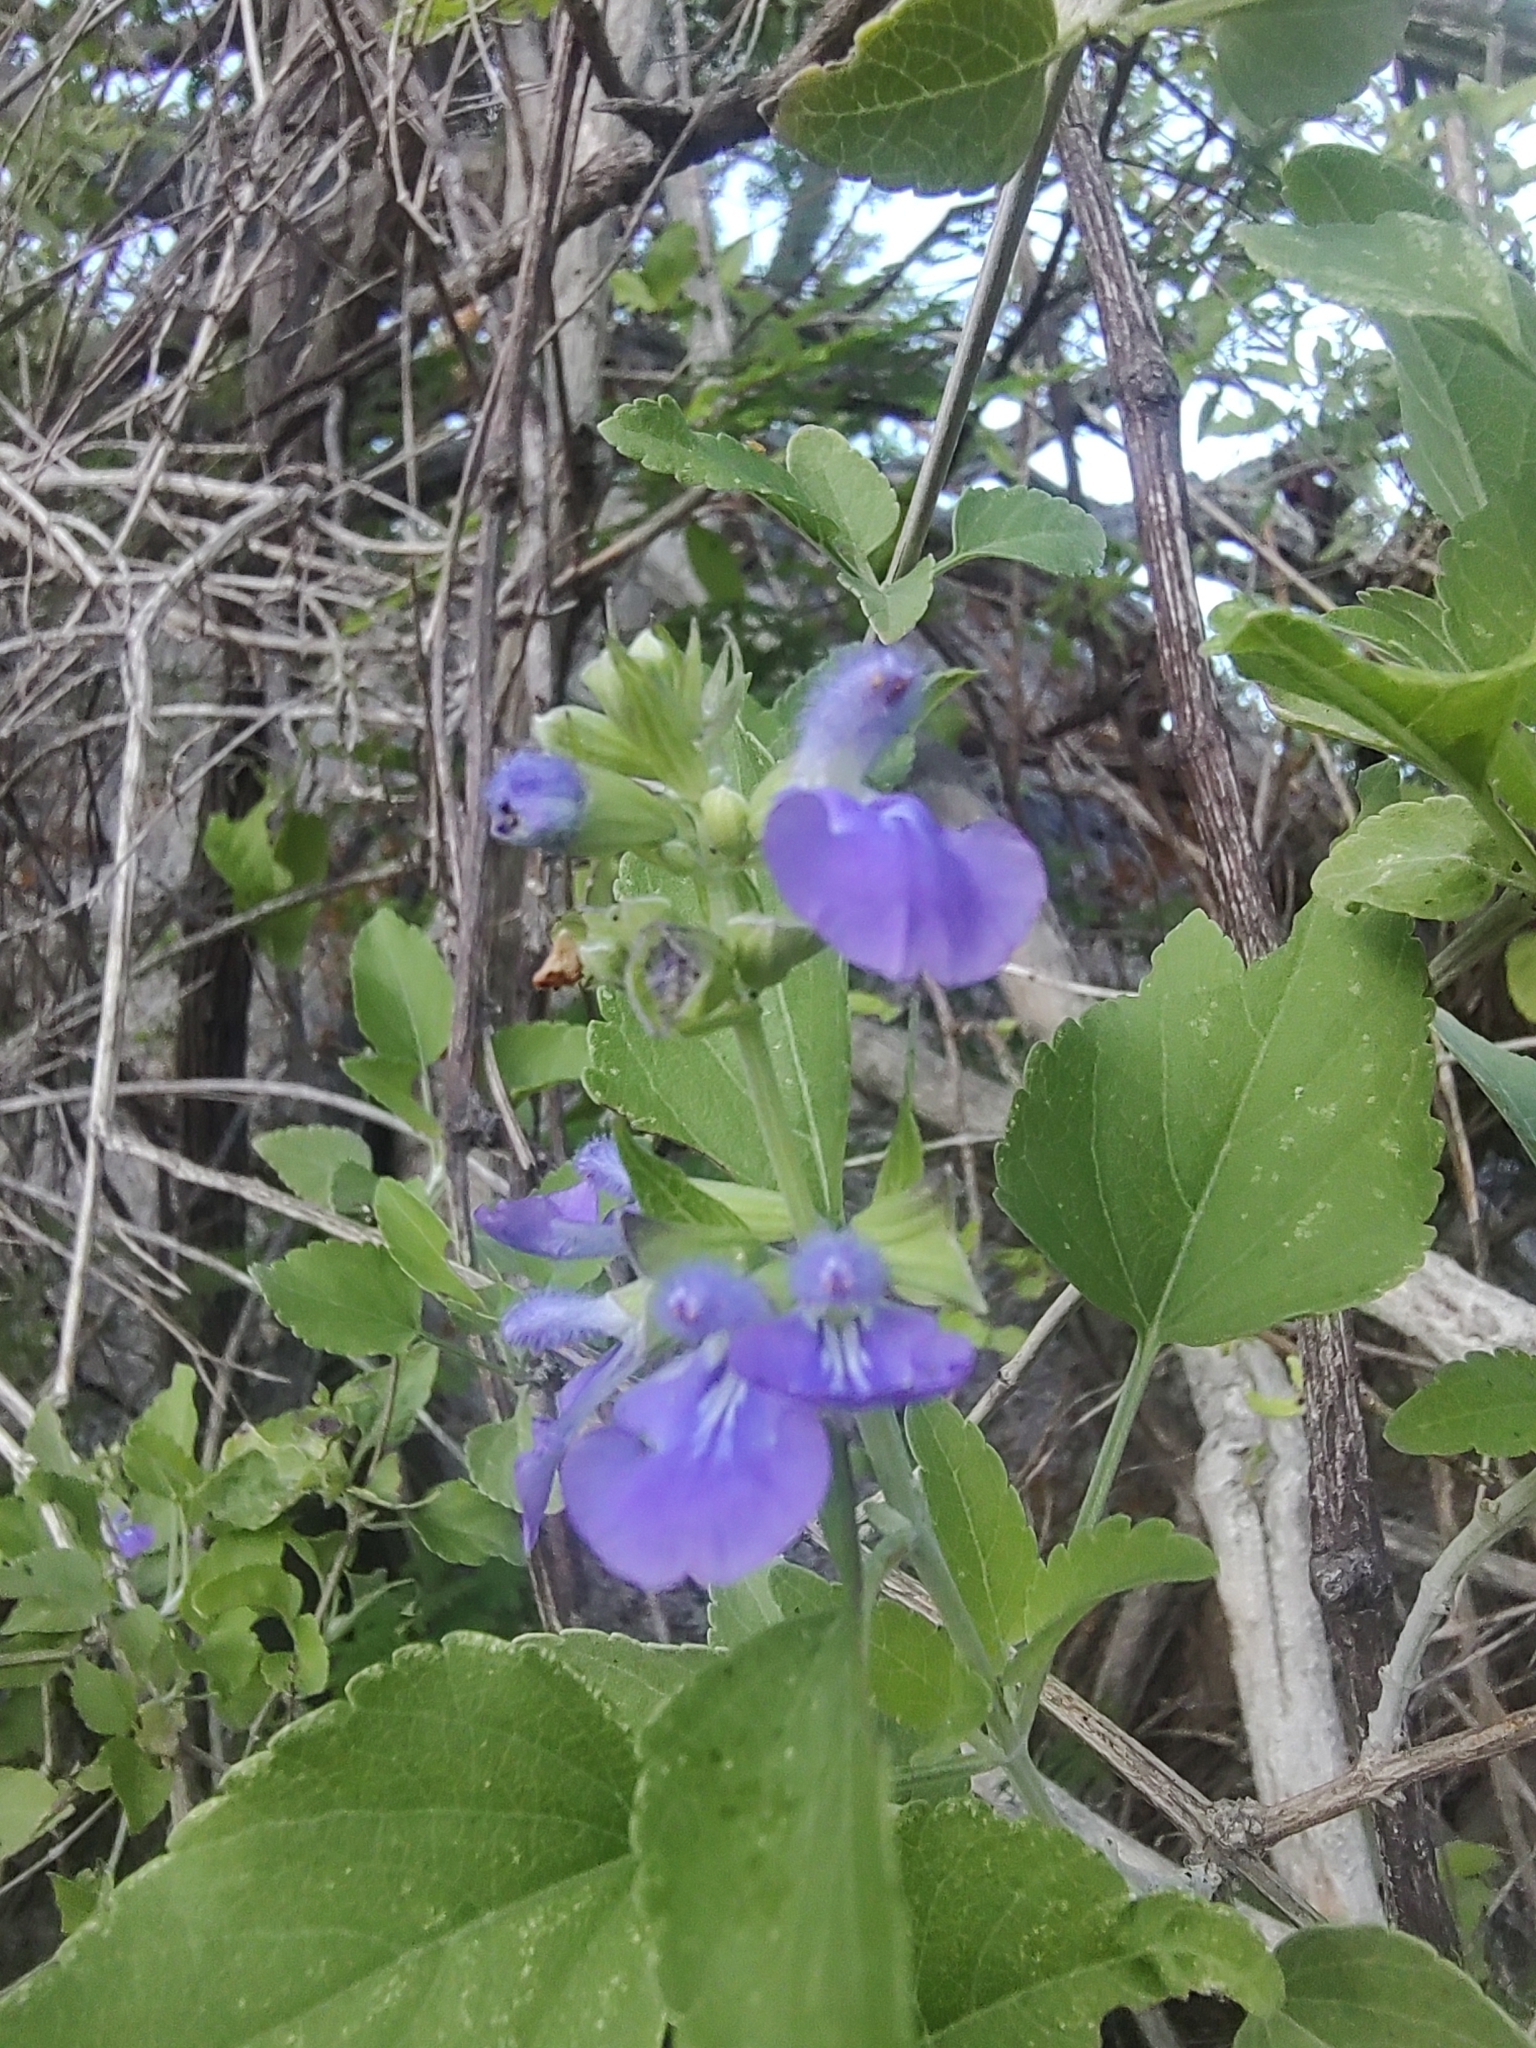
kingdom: Plantae
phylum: Tracheophyta
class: Magnoliopsida
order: Lamiales
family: Lamiaceae
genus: Salvia
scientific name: Salvia similis
